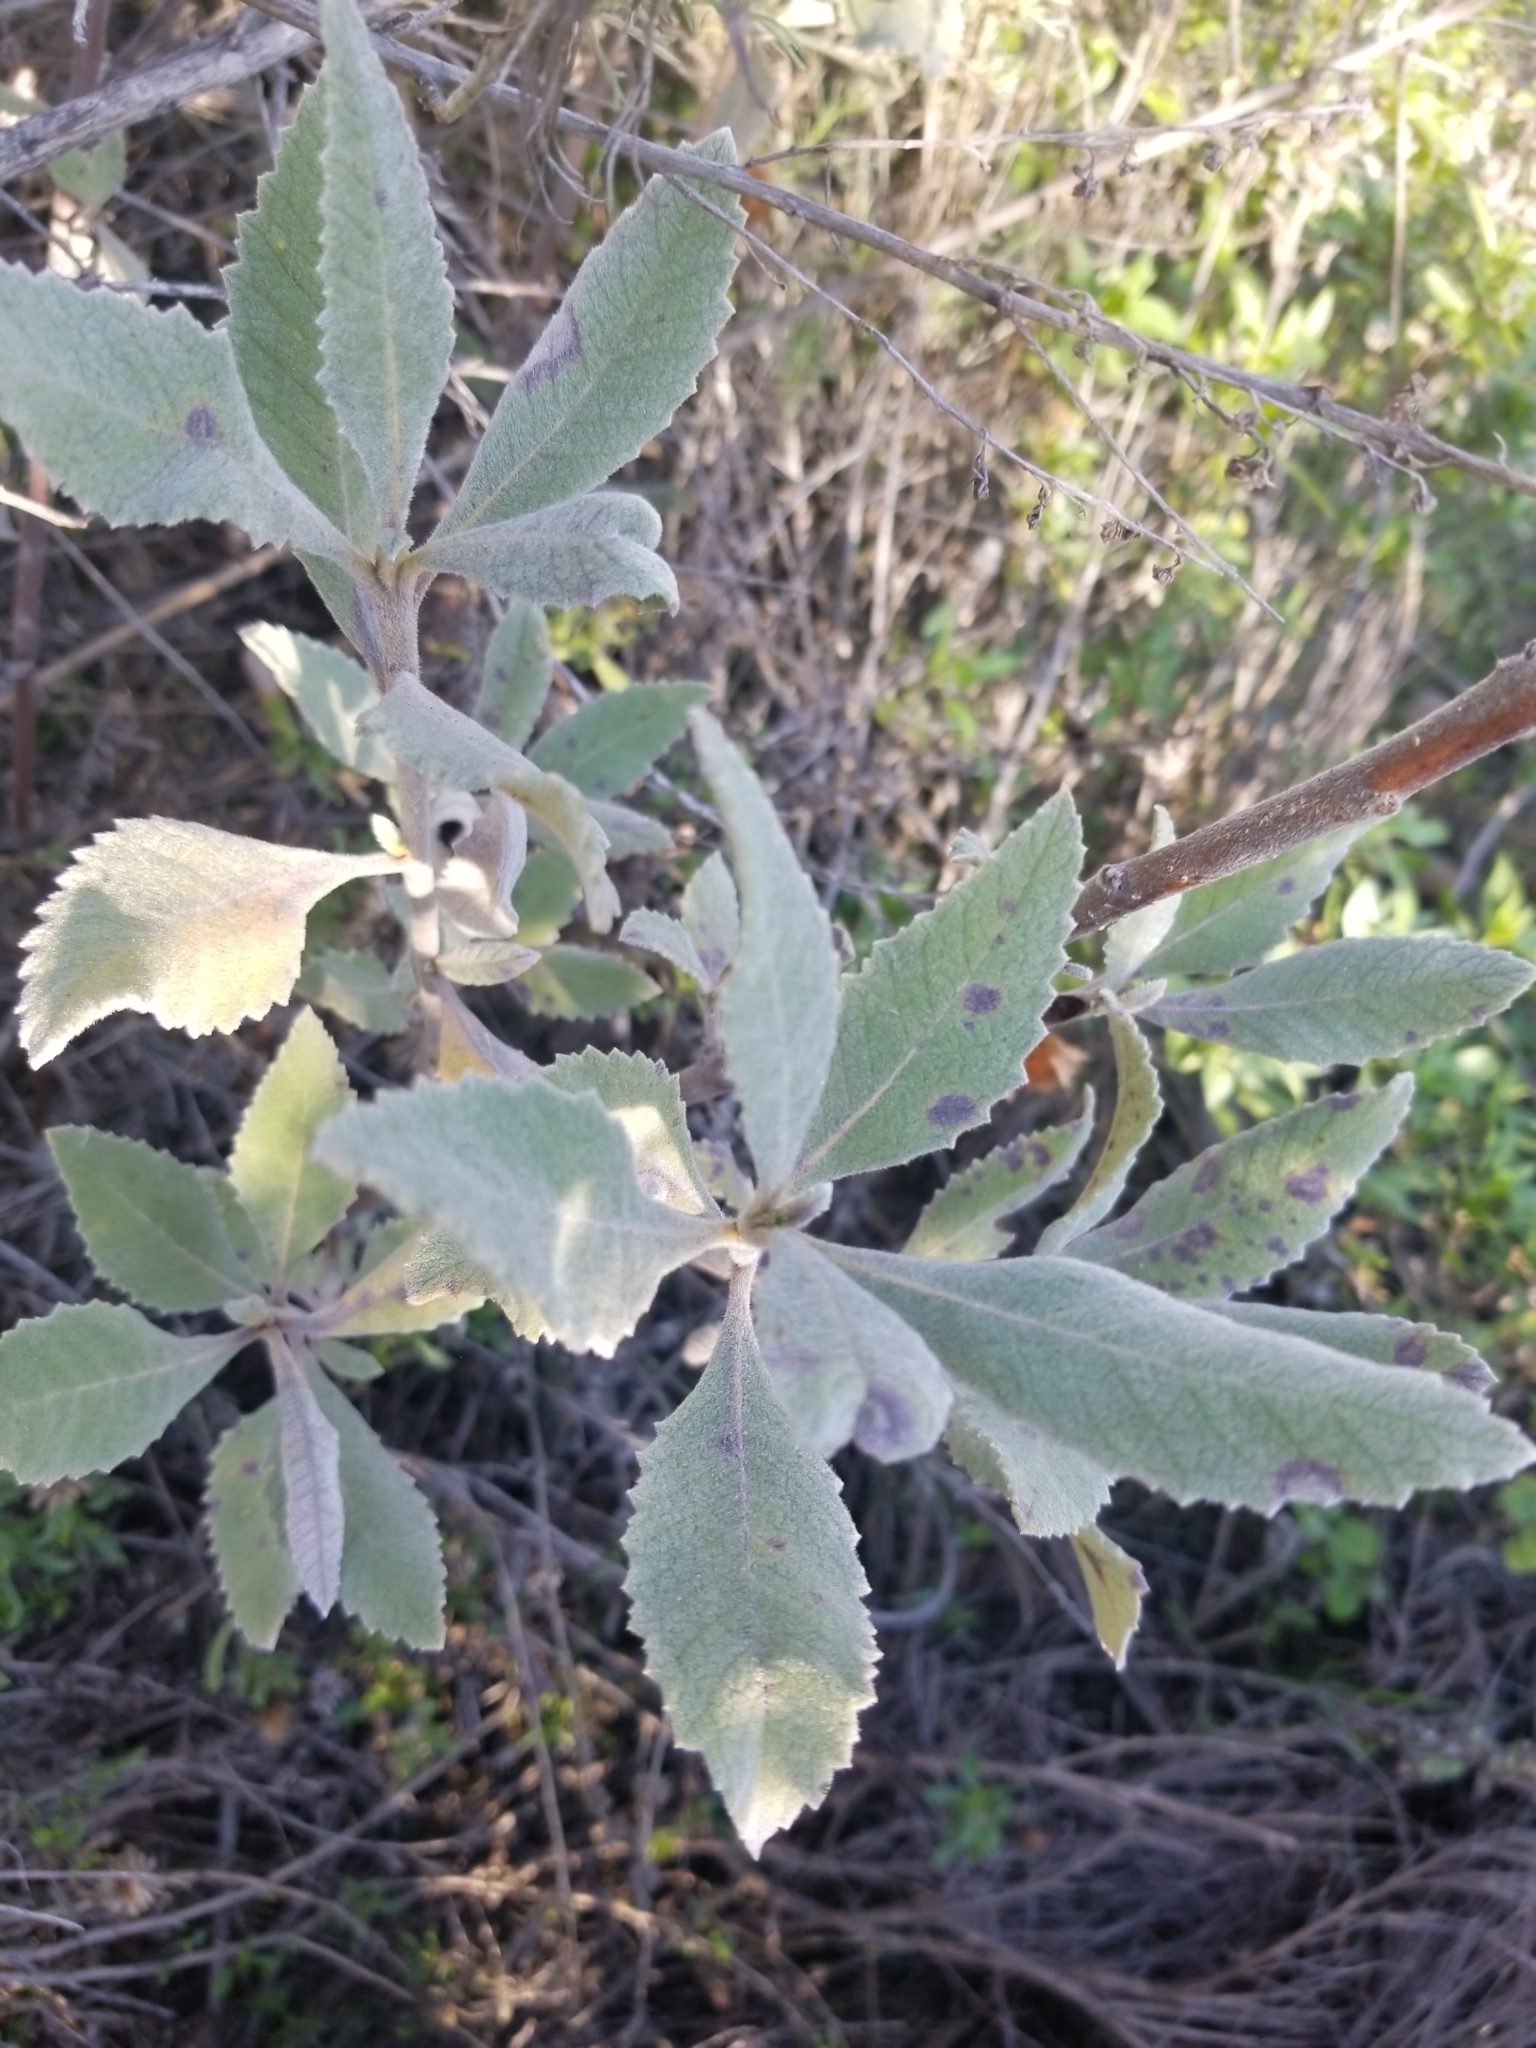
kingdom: Plantae
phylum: Tracheophyta
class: Magnoliopsida
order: Boraginales
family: Namaceae
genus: Eriodictyon
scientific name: Eriodictyon crassifolium
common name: Thick-leaf yerba-santa
